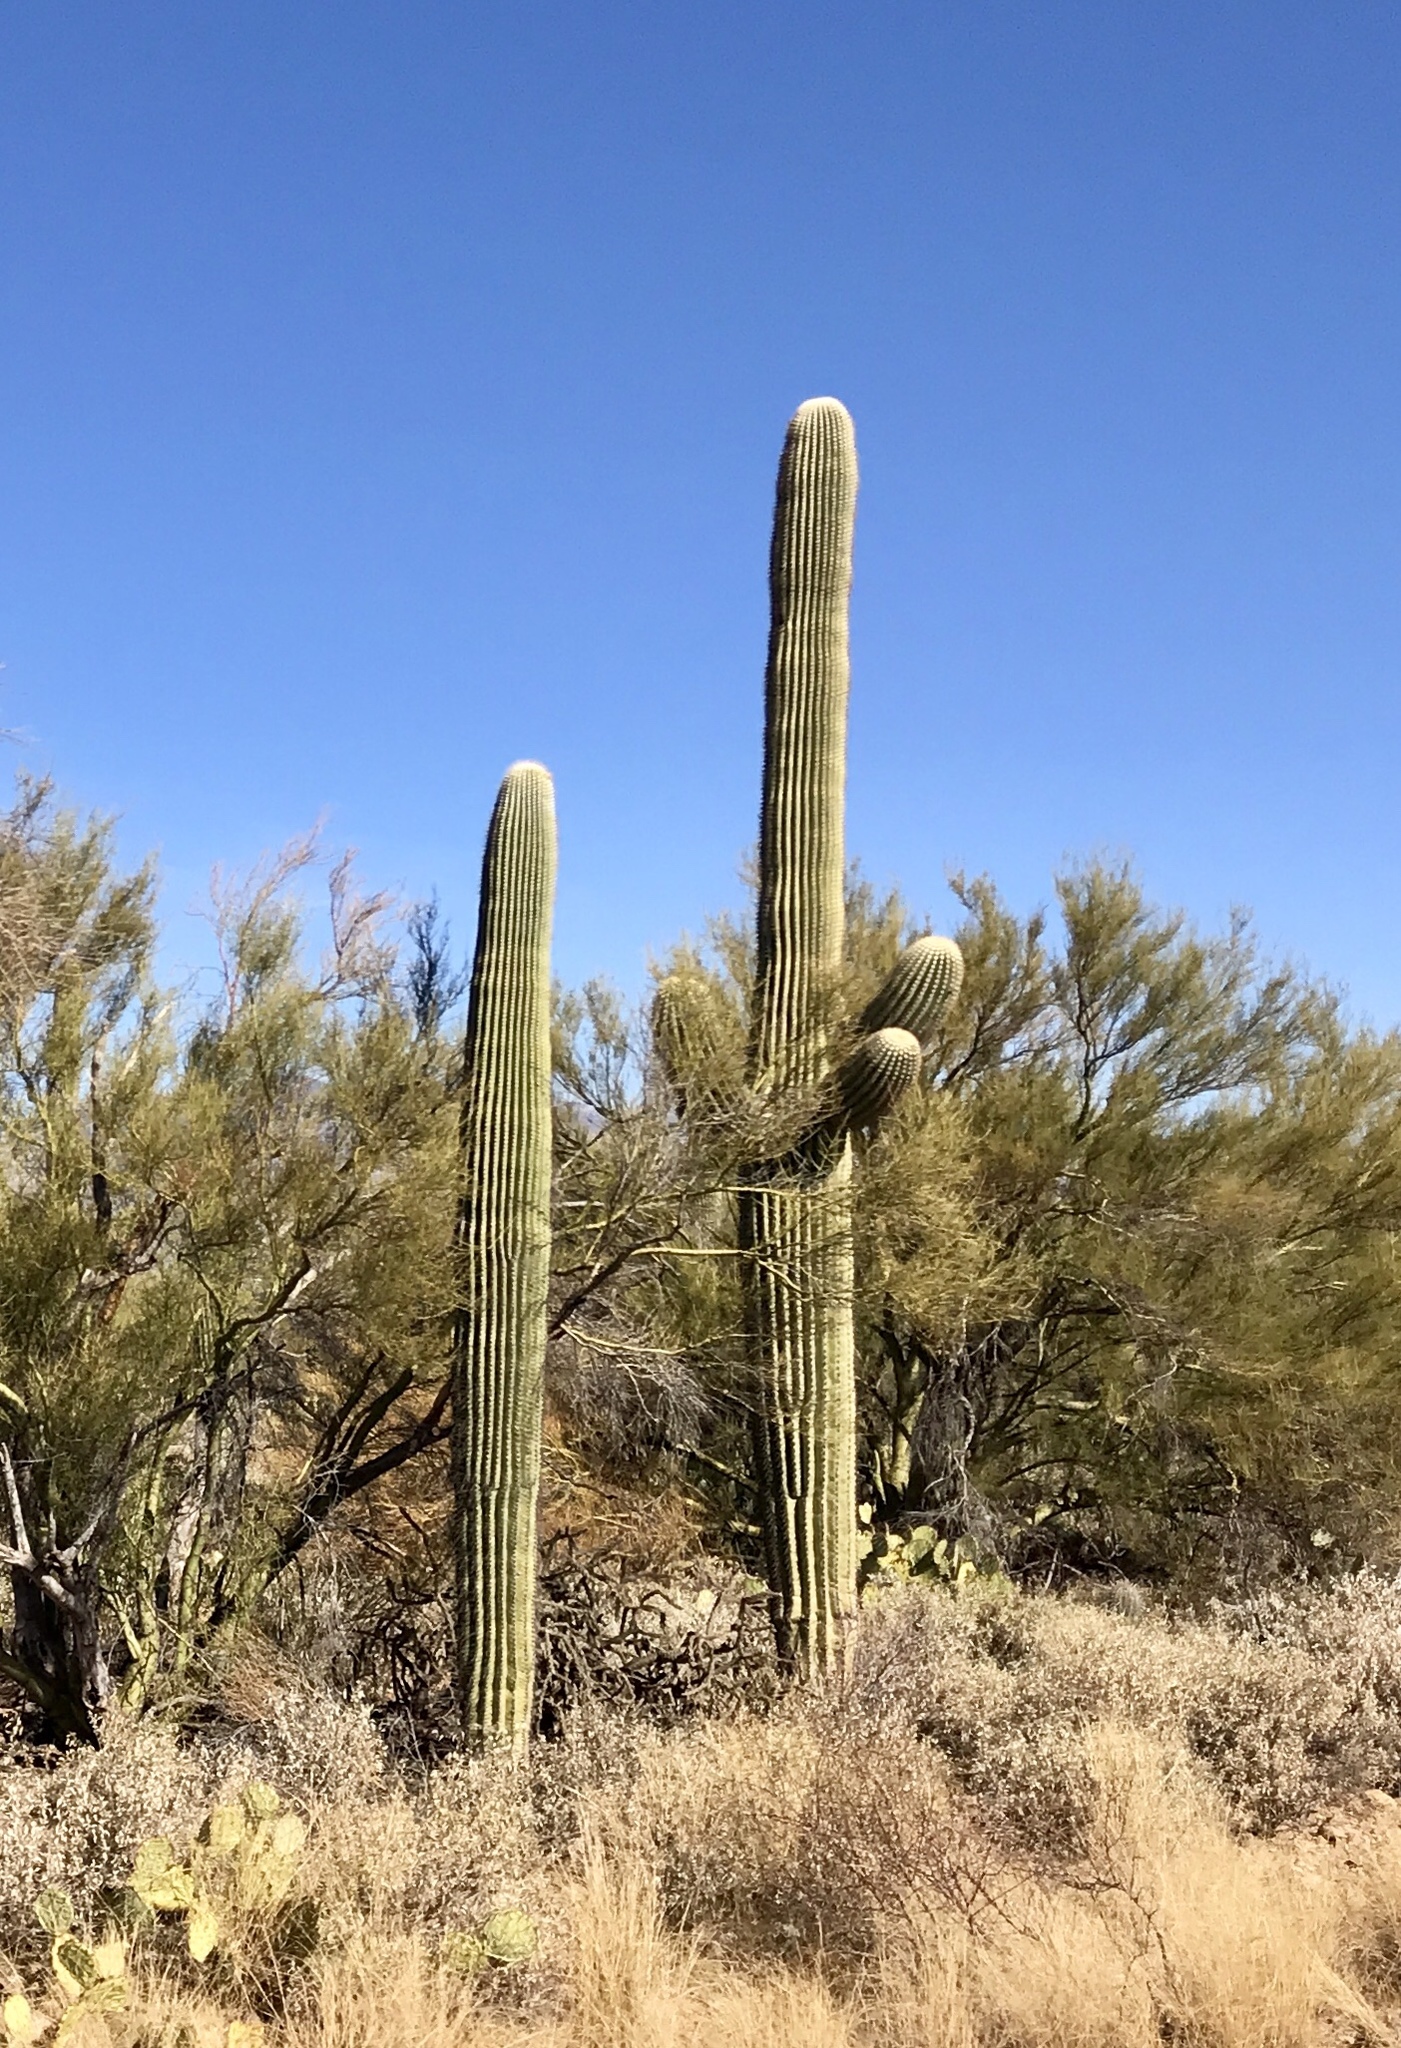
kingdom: Plantae
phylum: Tracheophyta
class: Magnoliopsida
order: Caryophyllales
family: Cactaceae
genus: Carnegiea
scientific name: Carnegiea gigantea
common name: Saguaro
